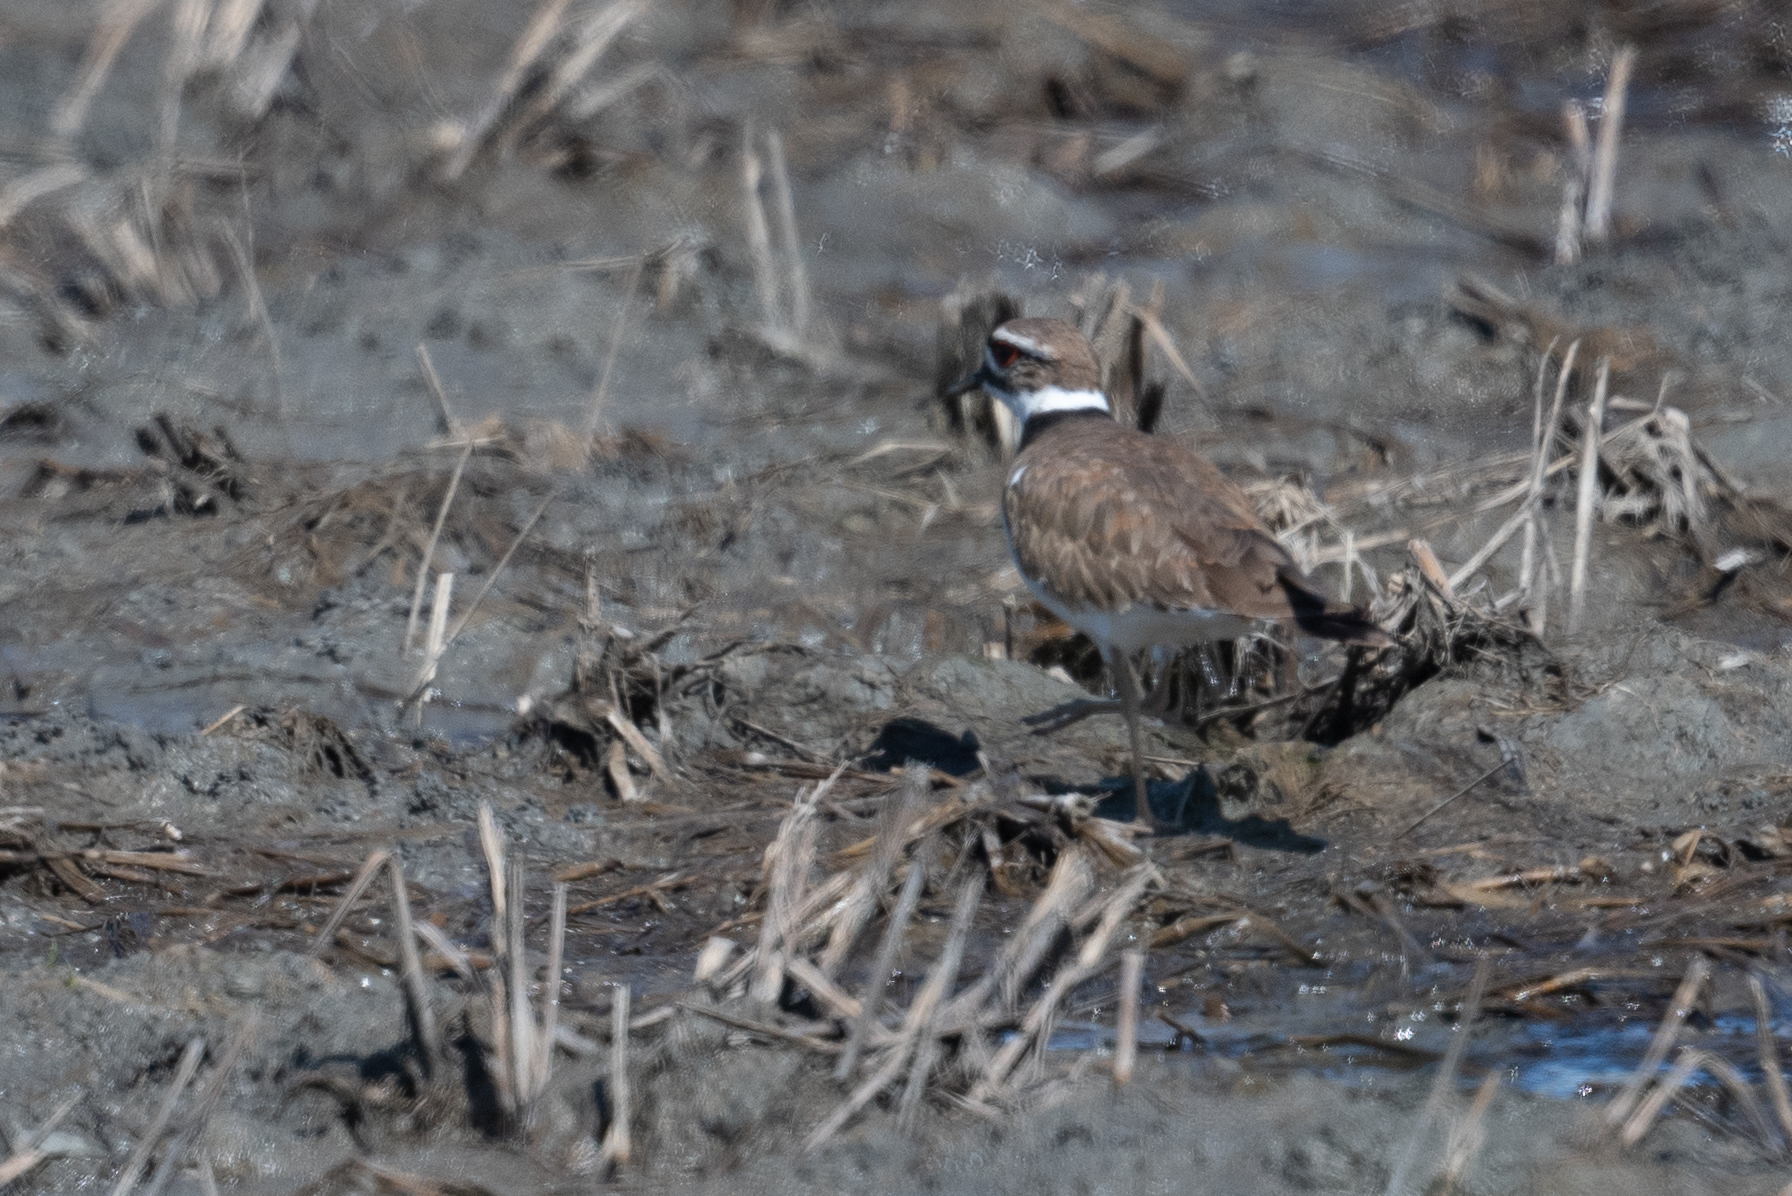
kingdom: Animalia
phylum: Chordata
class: Aves
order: Charadriiformes
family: Charadriidae
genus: Charadrius
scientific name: Charadrius vociferus
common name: Killdeer
